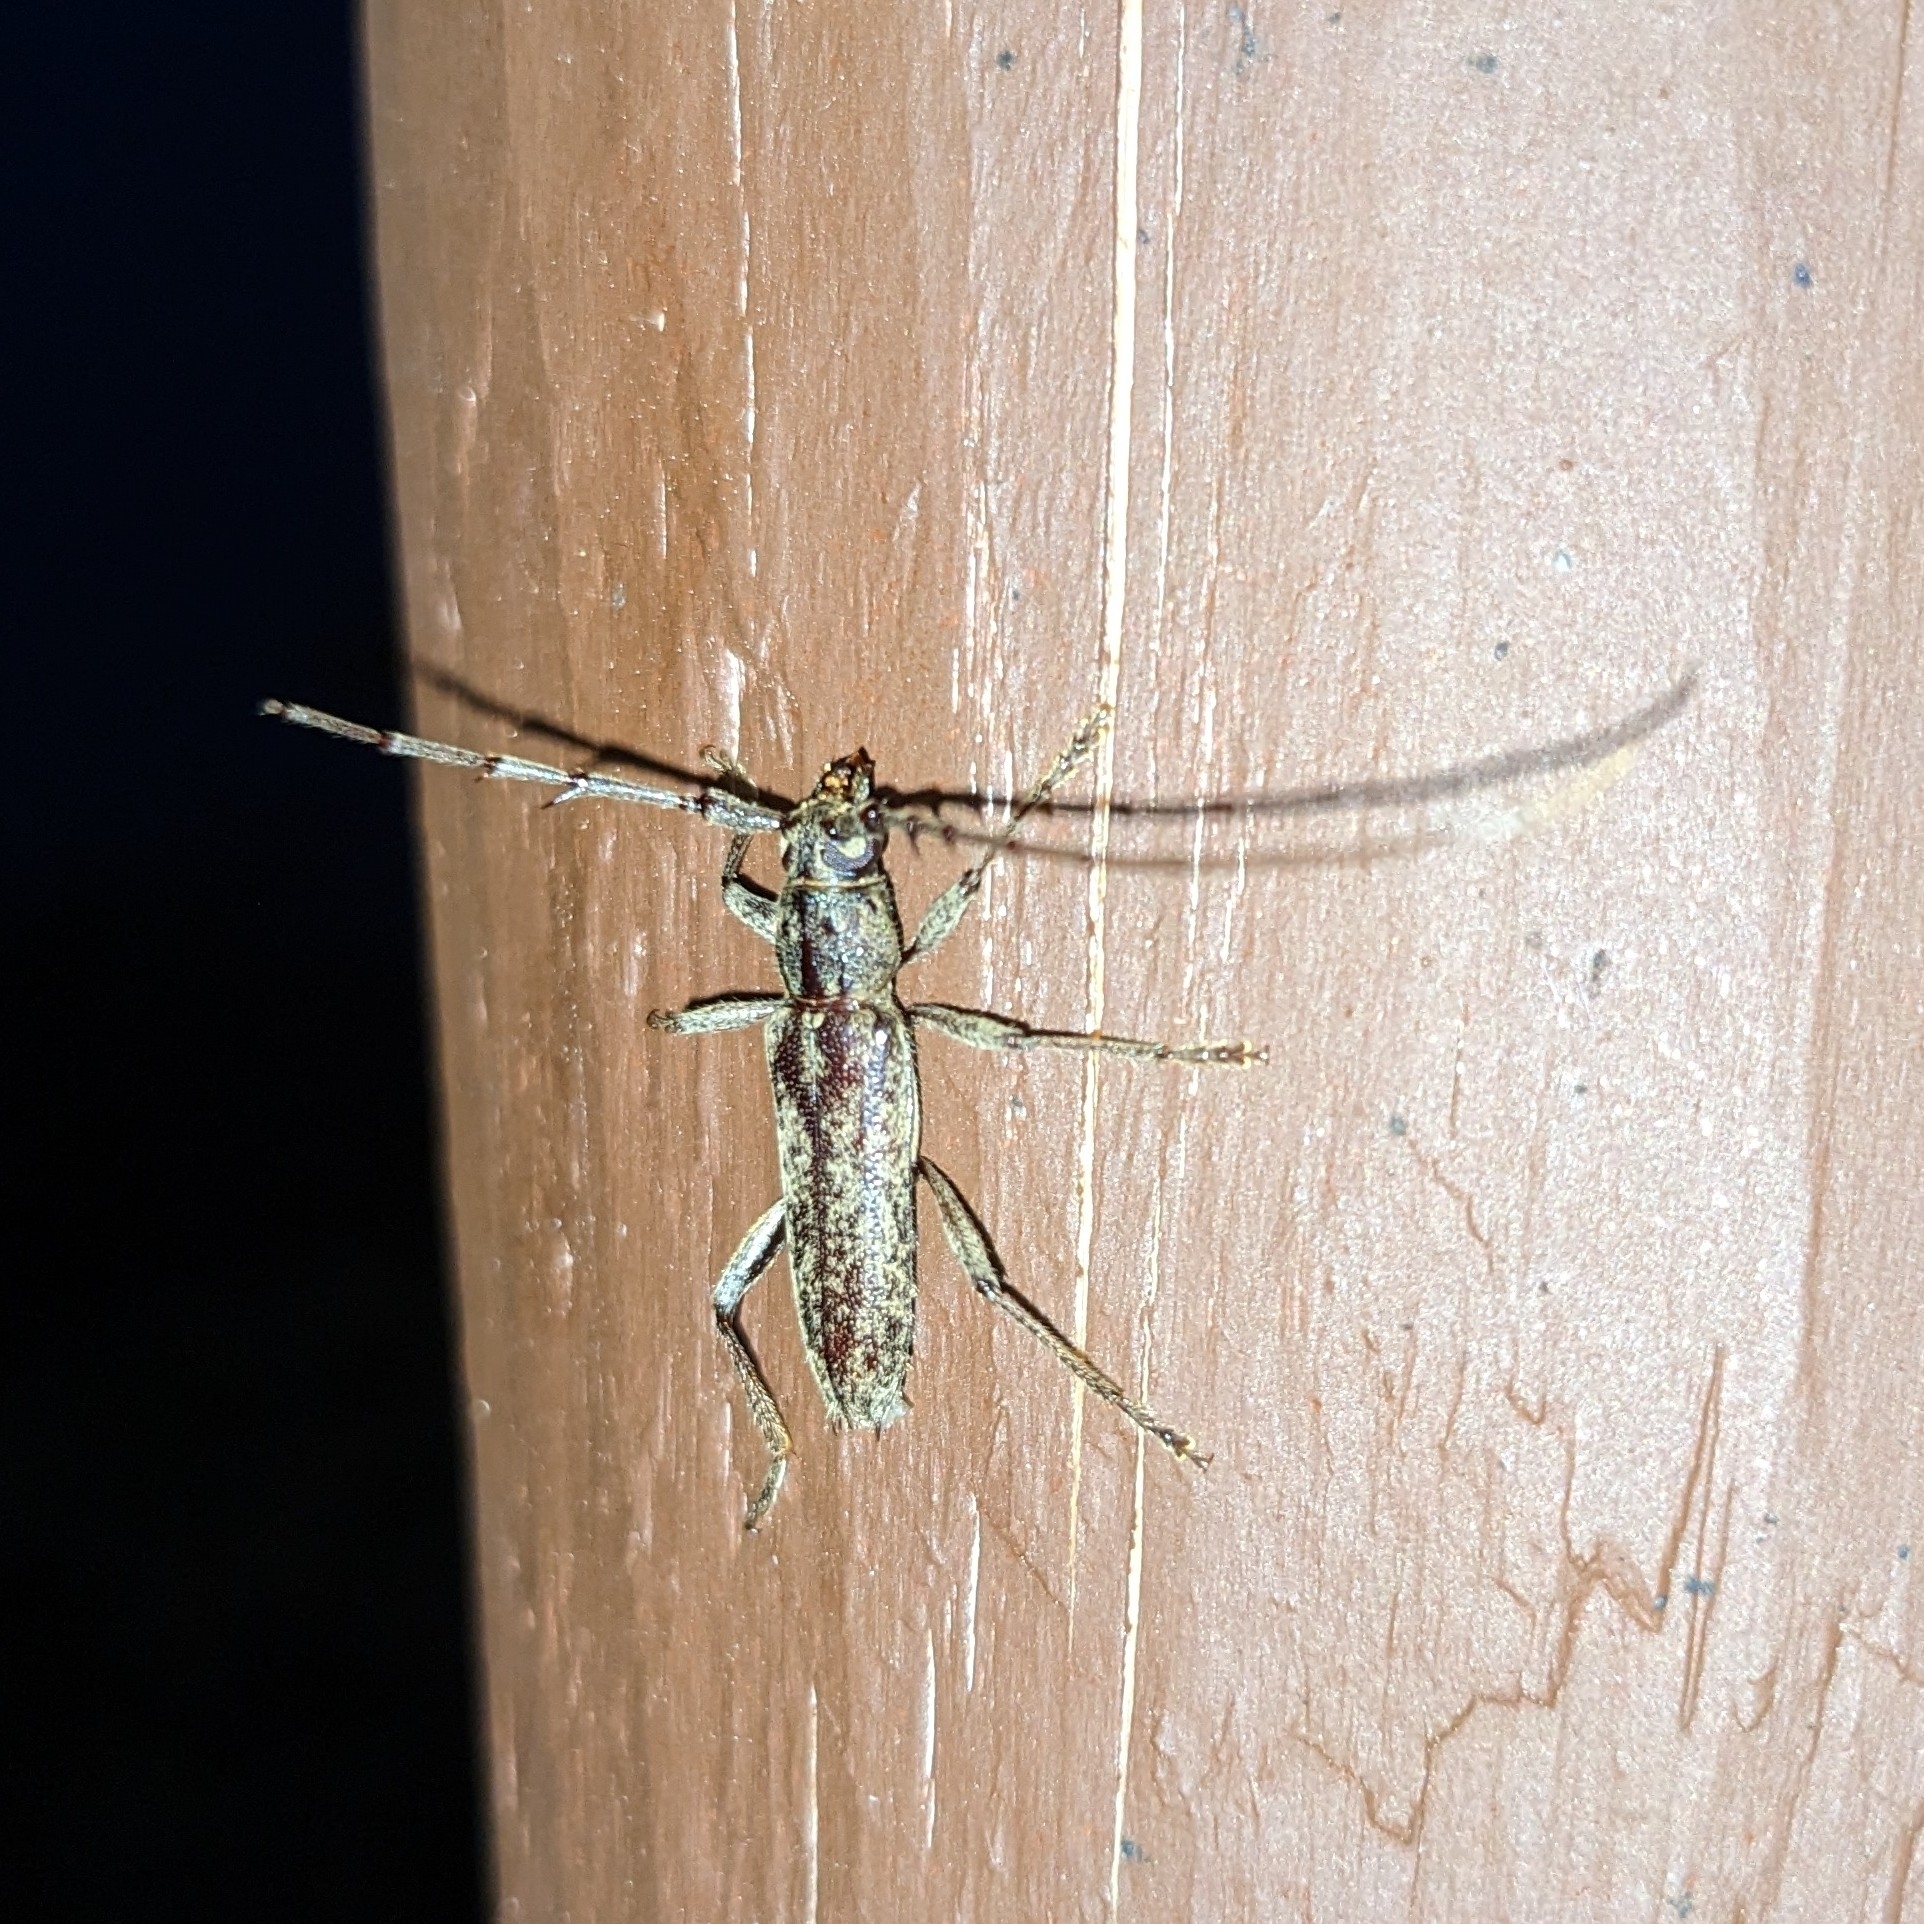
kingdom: Animalia
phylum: Arthropoda
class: Insecta
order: Coleoptera
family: Cerambycidae
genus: Elaphidion
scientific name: Elaphidion mucronatum
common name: Spined oak borer
